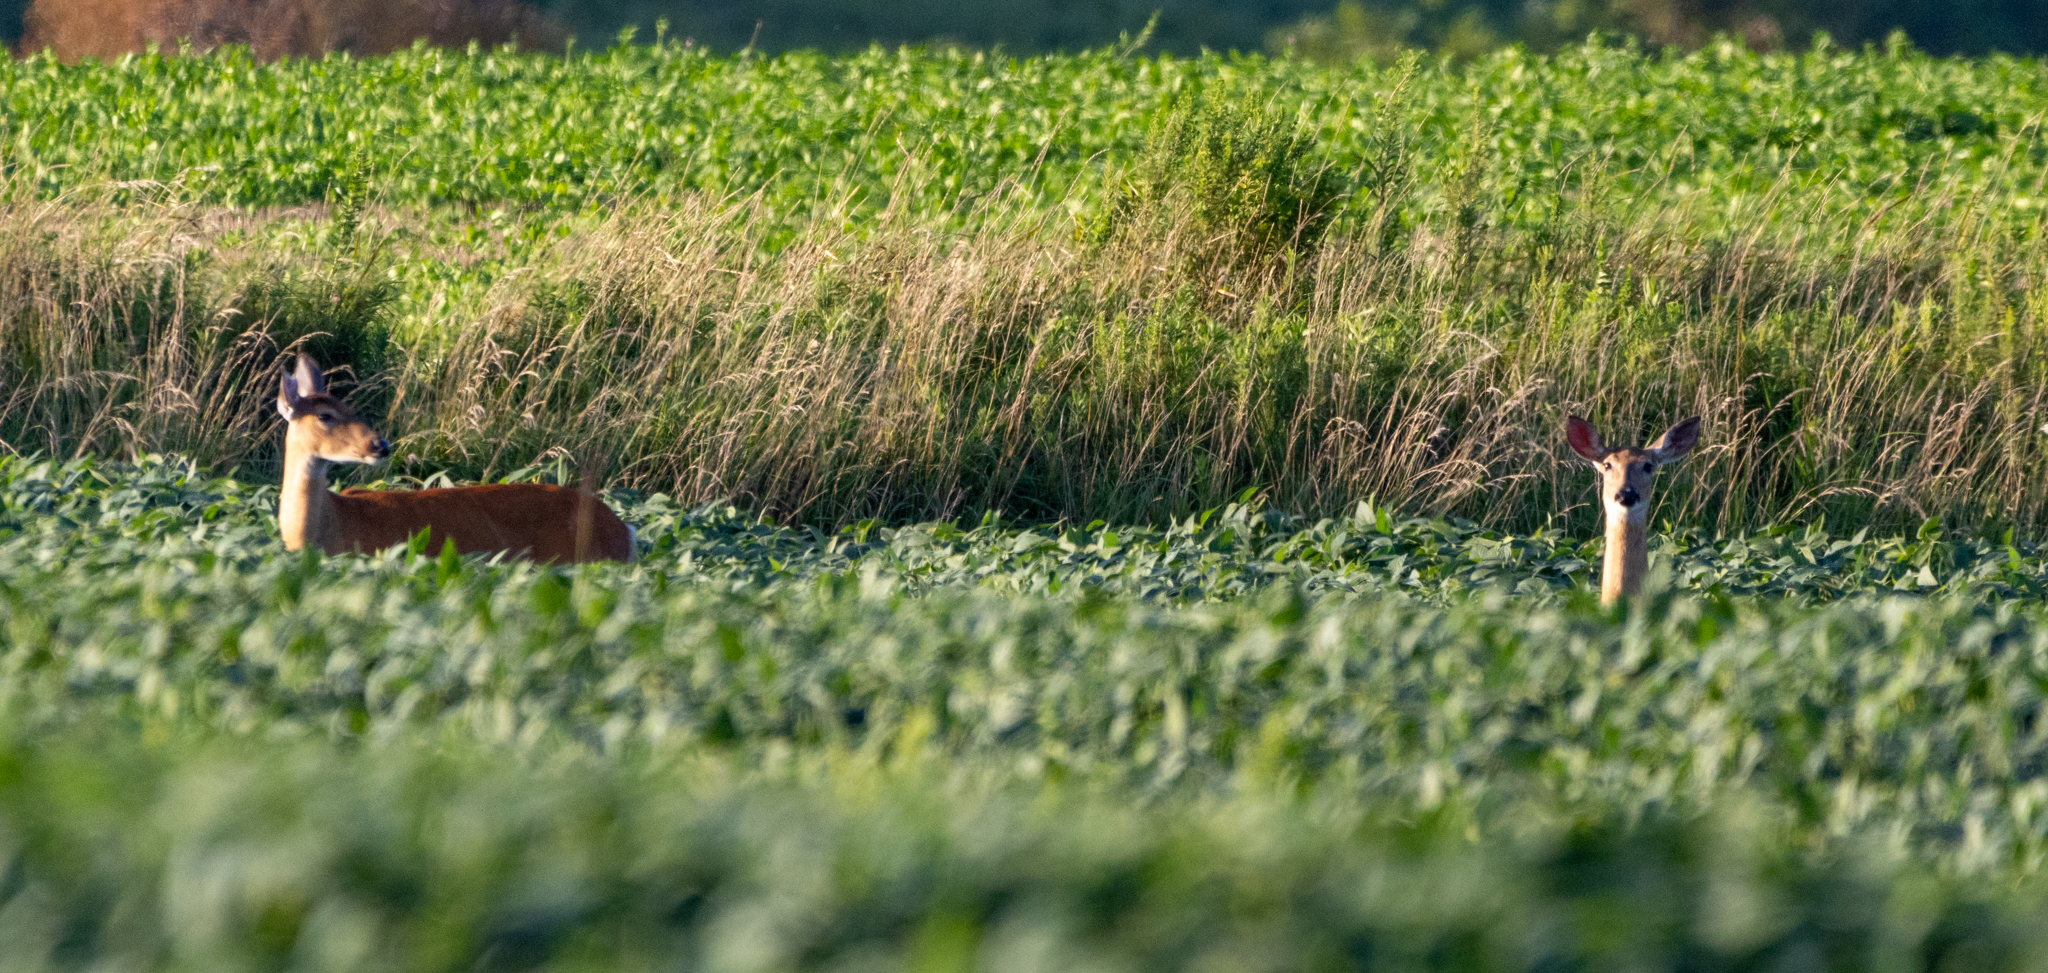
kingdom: Animalia
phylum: Chordata
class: Mammalia
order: Artiodactyla
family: Cervidae
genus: Odocoileus
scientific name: Odocoileus virginianus
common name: White-tailed deer
